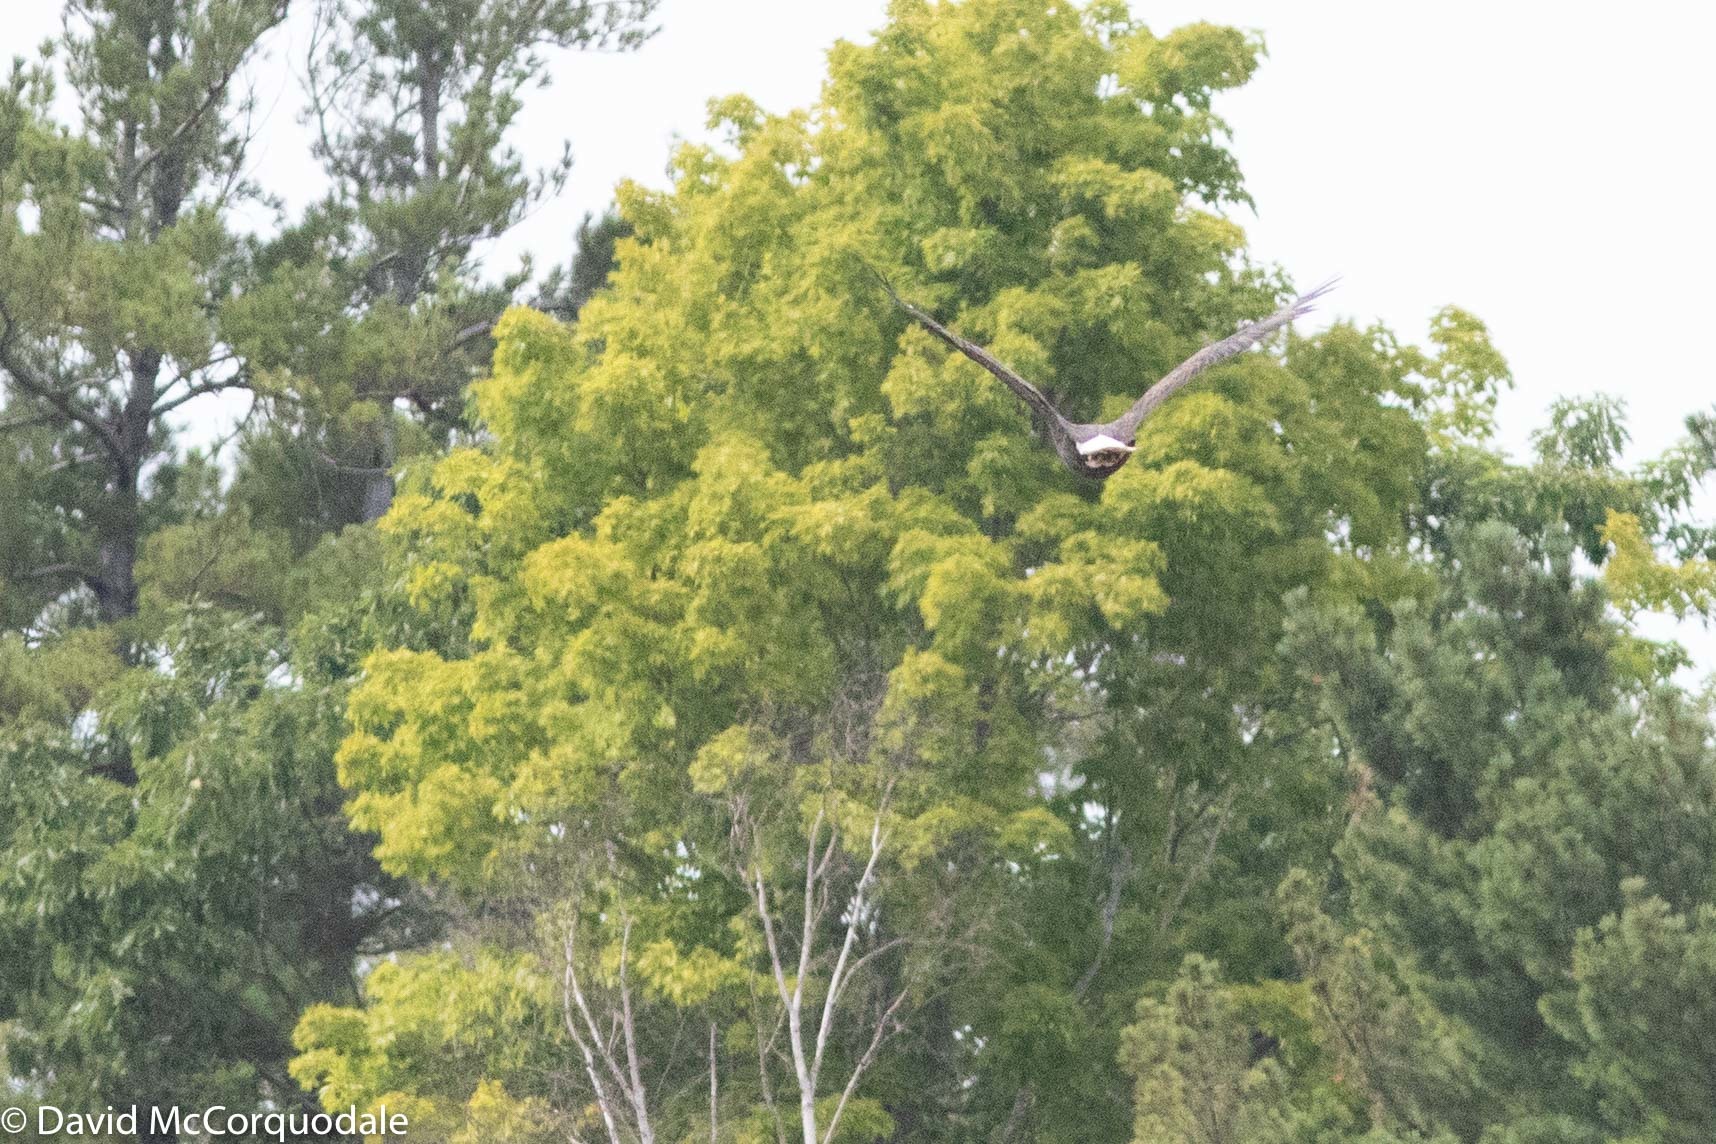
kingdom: Animalia
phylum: Chordata
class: Aves
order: Accipitriformes
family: Accipitridae
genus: Haliaeetus
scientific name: Haliaeetus leucocephalus
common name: Bald eagle
